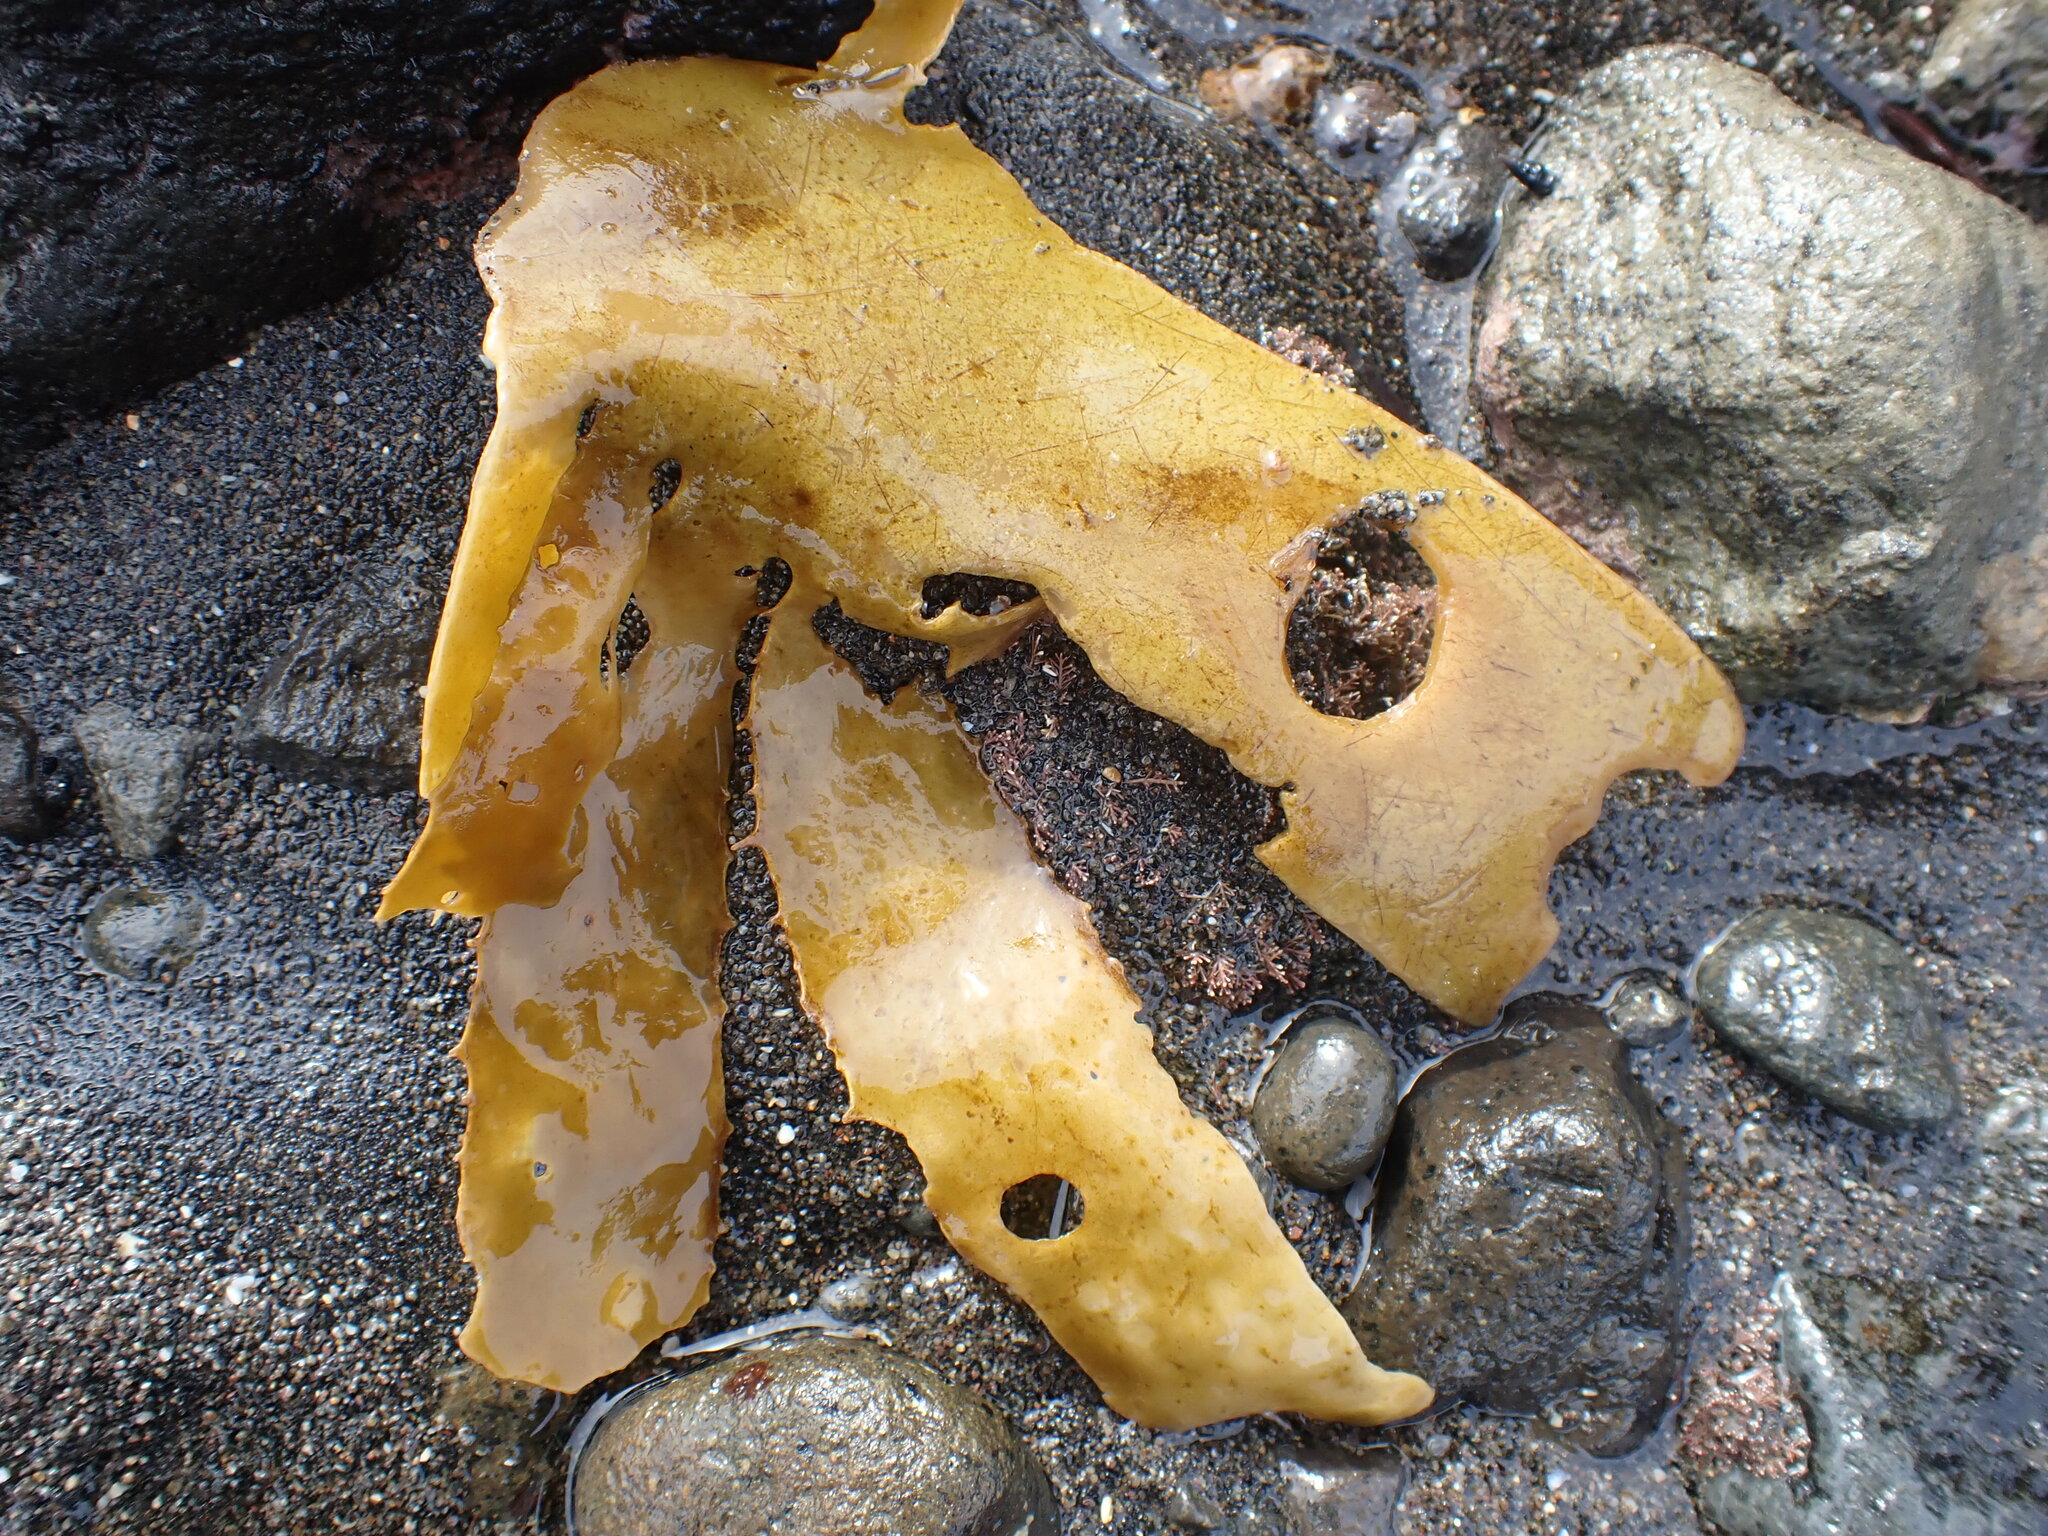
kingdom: Chromista
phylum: Ochrophyta
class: Phaeophyceae
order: Laminariales
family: Lessoniaceae
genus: Ecklonia
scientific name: Ecklonia radiata
